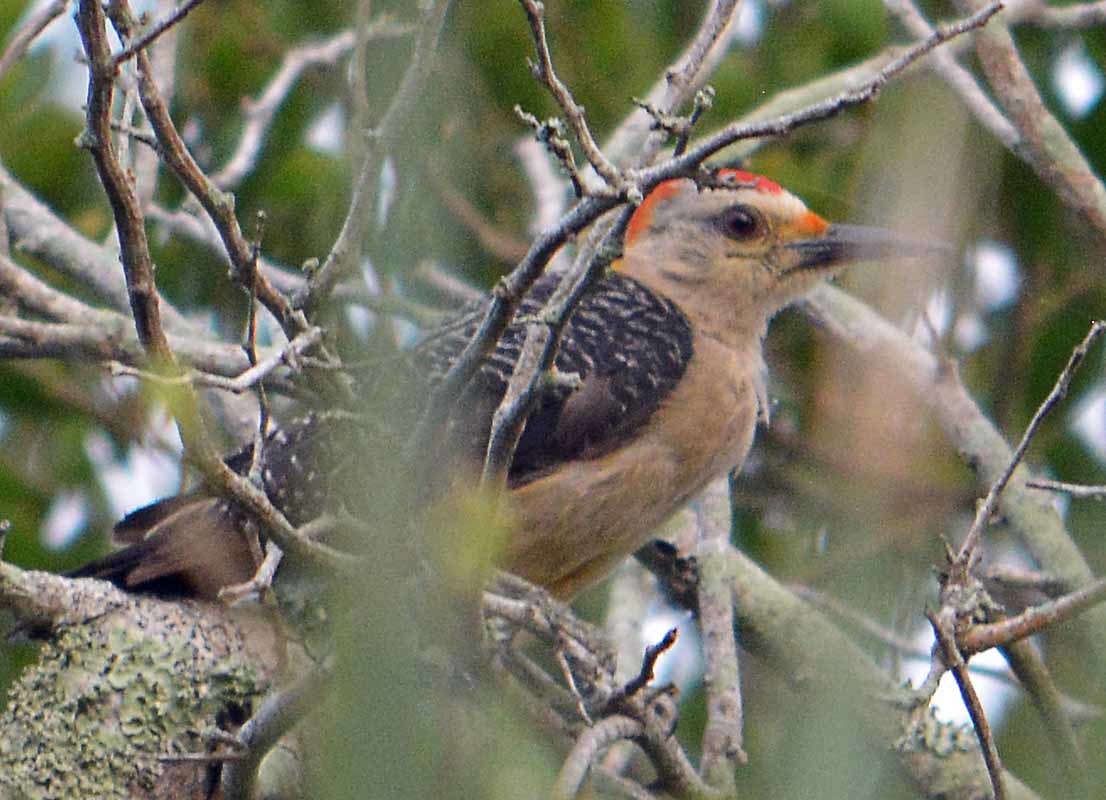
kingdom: Animalia
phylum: Chordata
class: Aves
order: Piciformes
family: Picidae
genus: Melanerpes
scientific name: Melanerpes aurifrons
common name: Golden-fronted woodpecker
